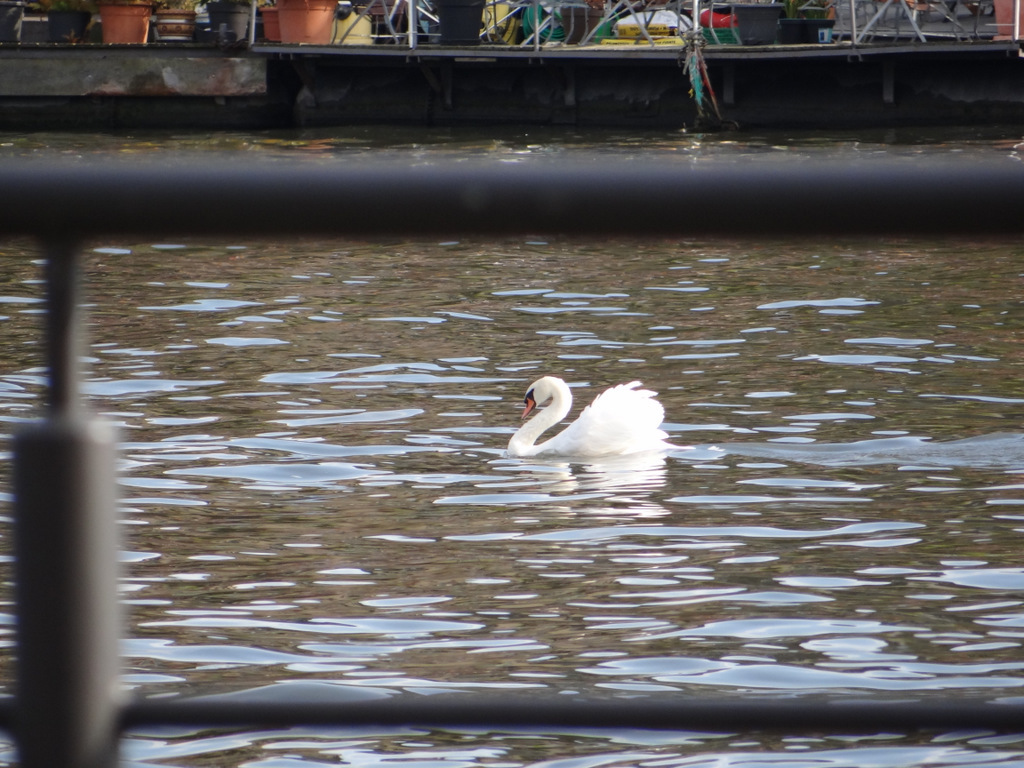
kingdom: Animalia
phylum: Chordata
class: Aves
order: Anseriformes
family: Anatidae
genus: Cygnus
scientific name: Cygnus olor
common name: Mute swan
